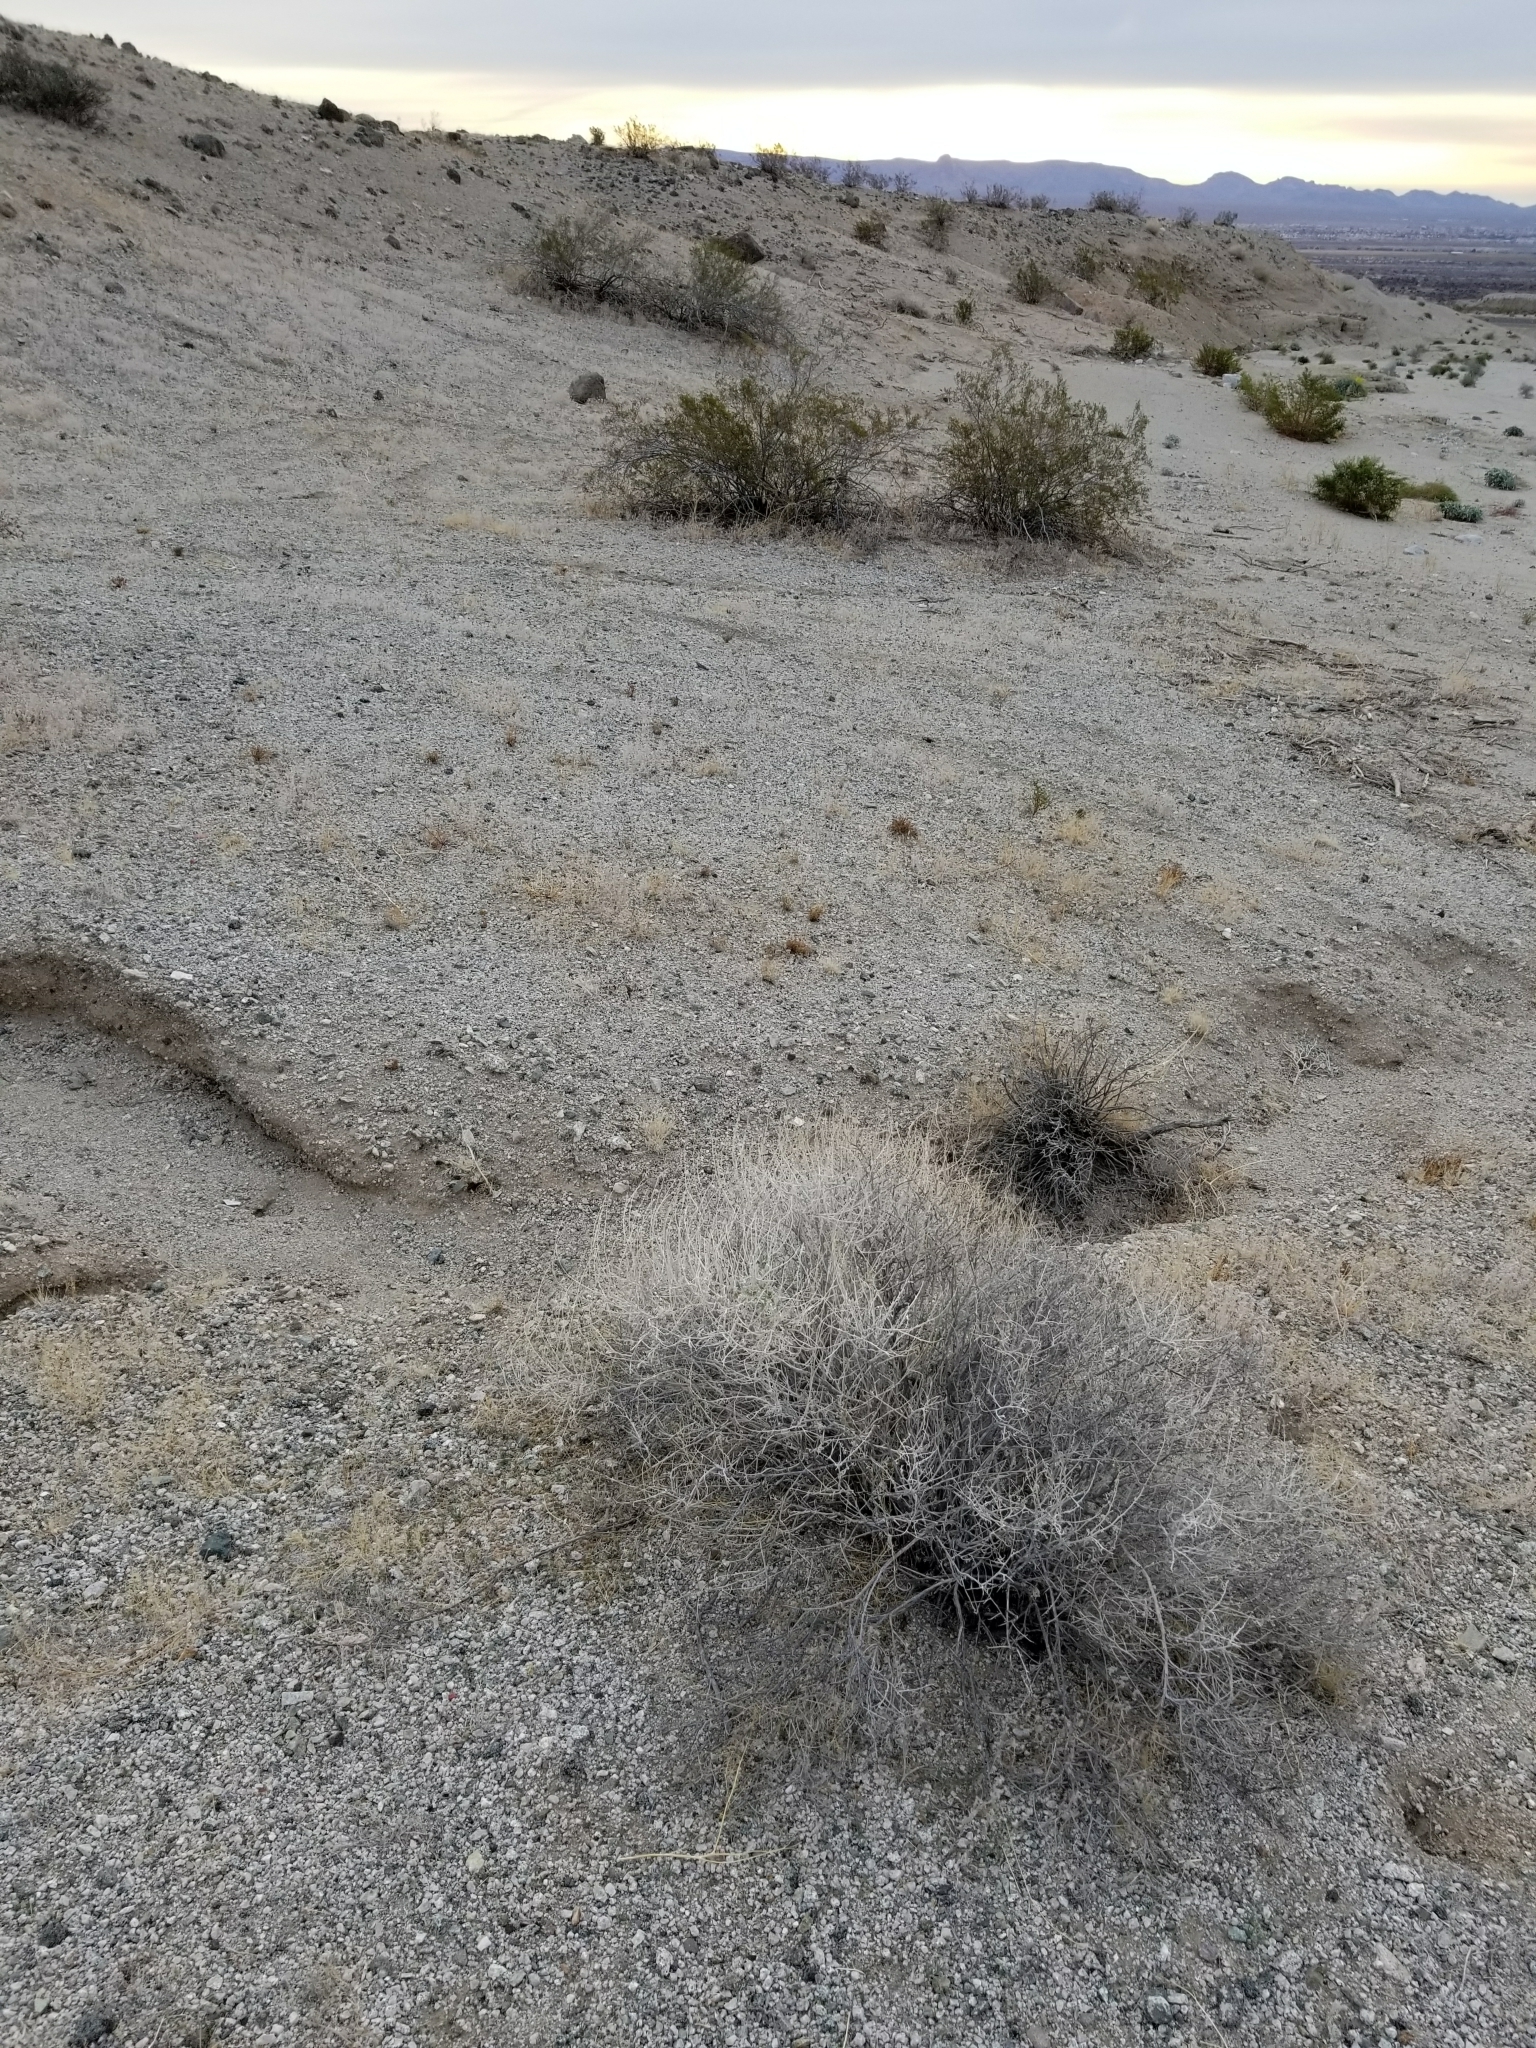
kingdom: Plantae
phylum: Tracheophyta
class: Magnoliopsida
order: Asterales
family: Asteraceae
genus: Ambrosia
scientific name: Ambrosia dumosa
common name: Bur-sage
